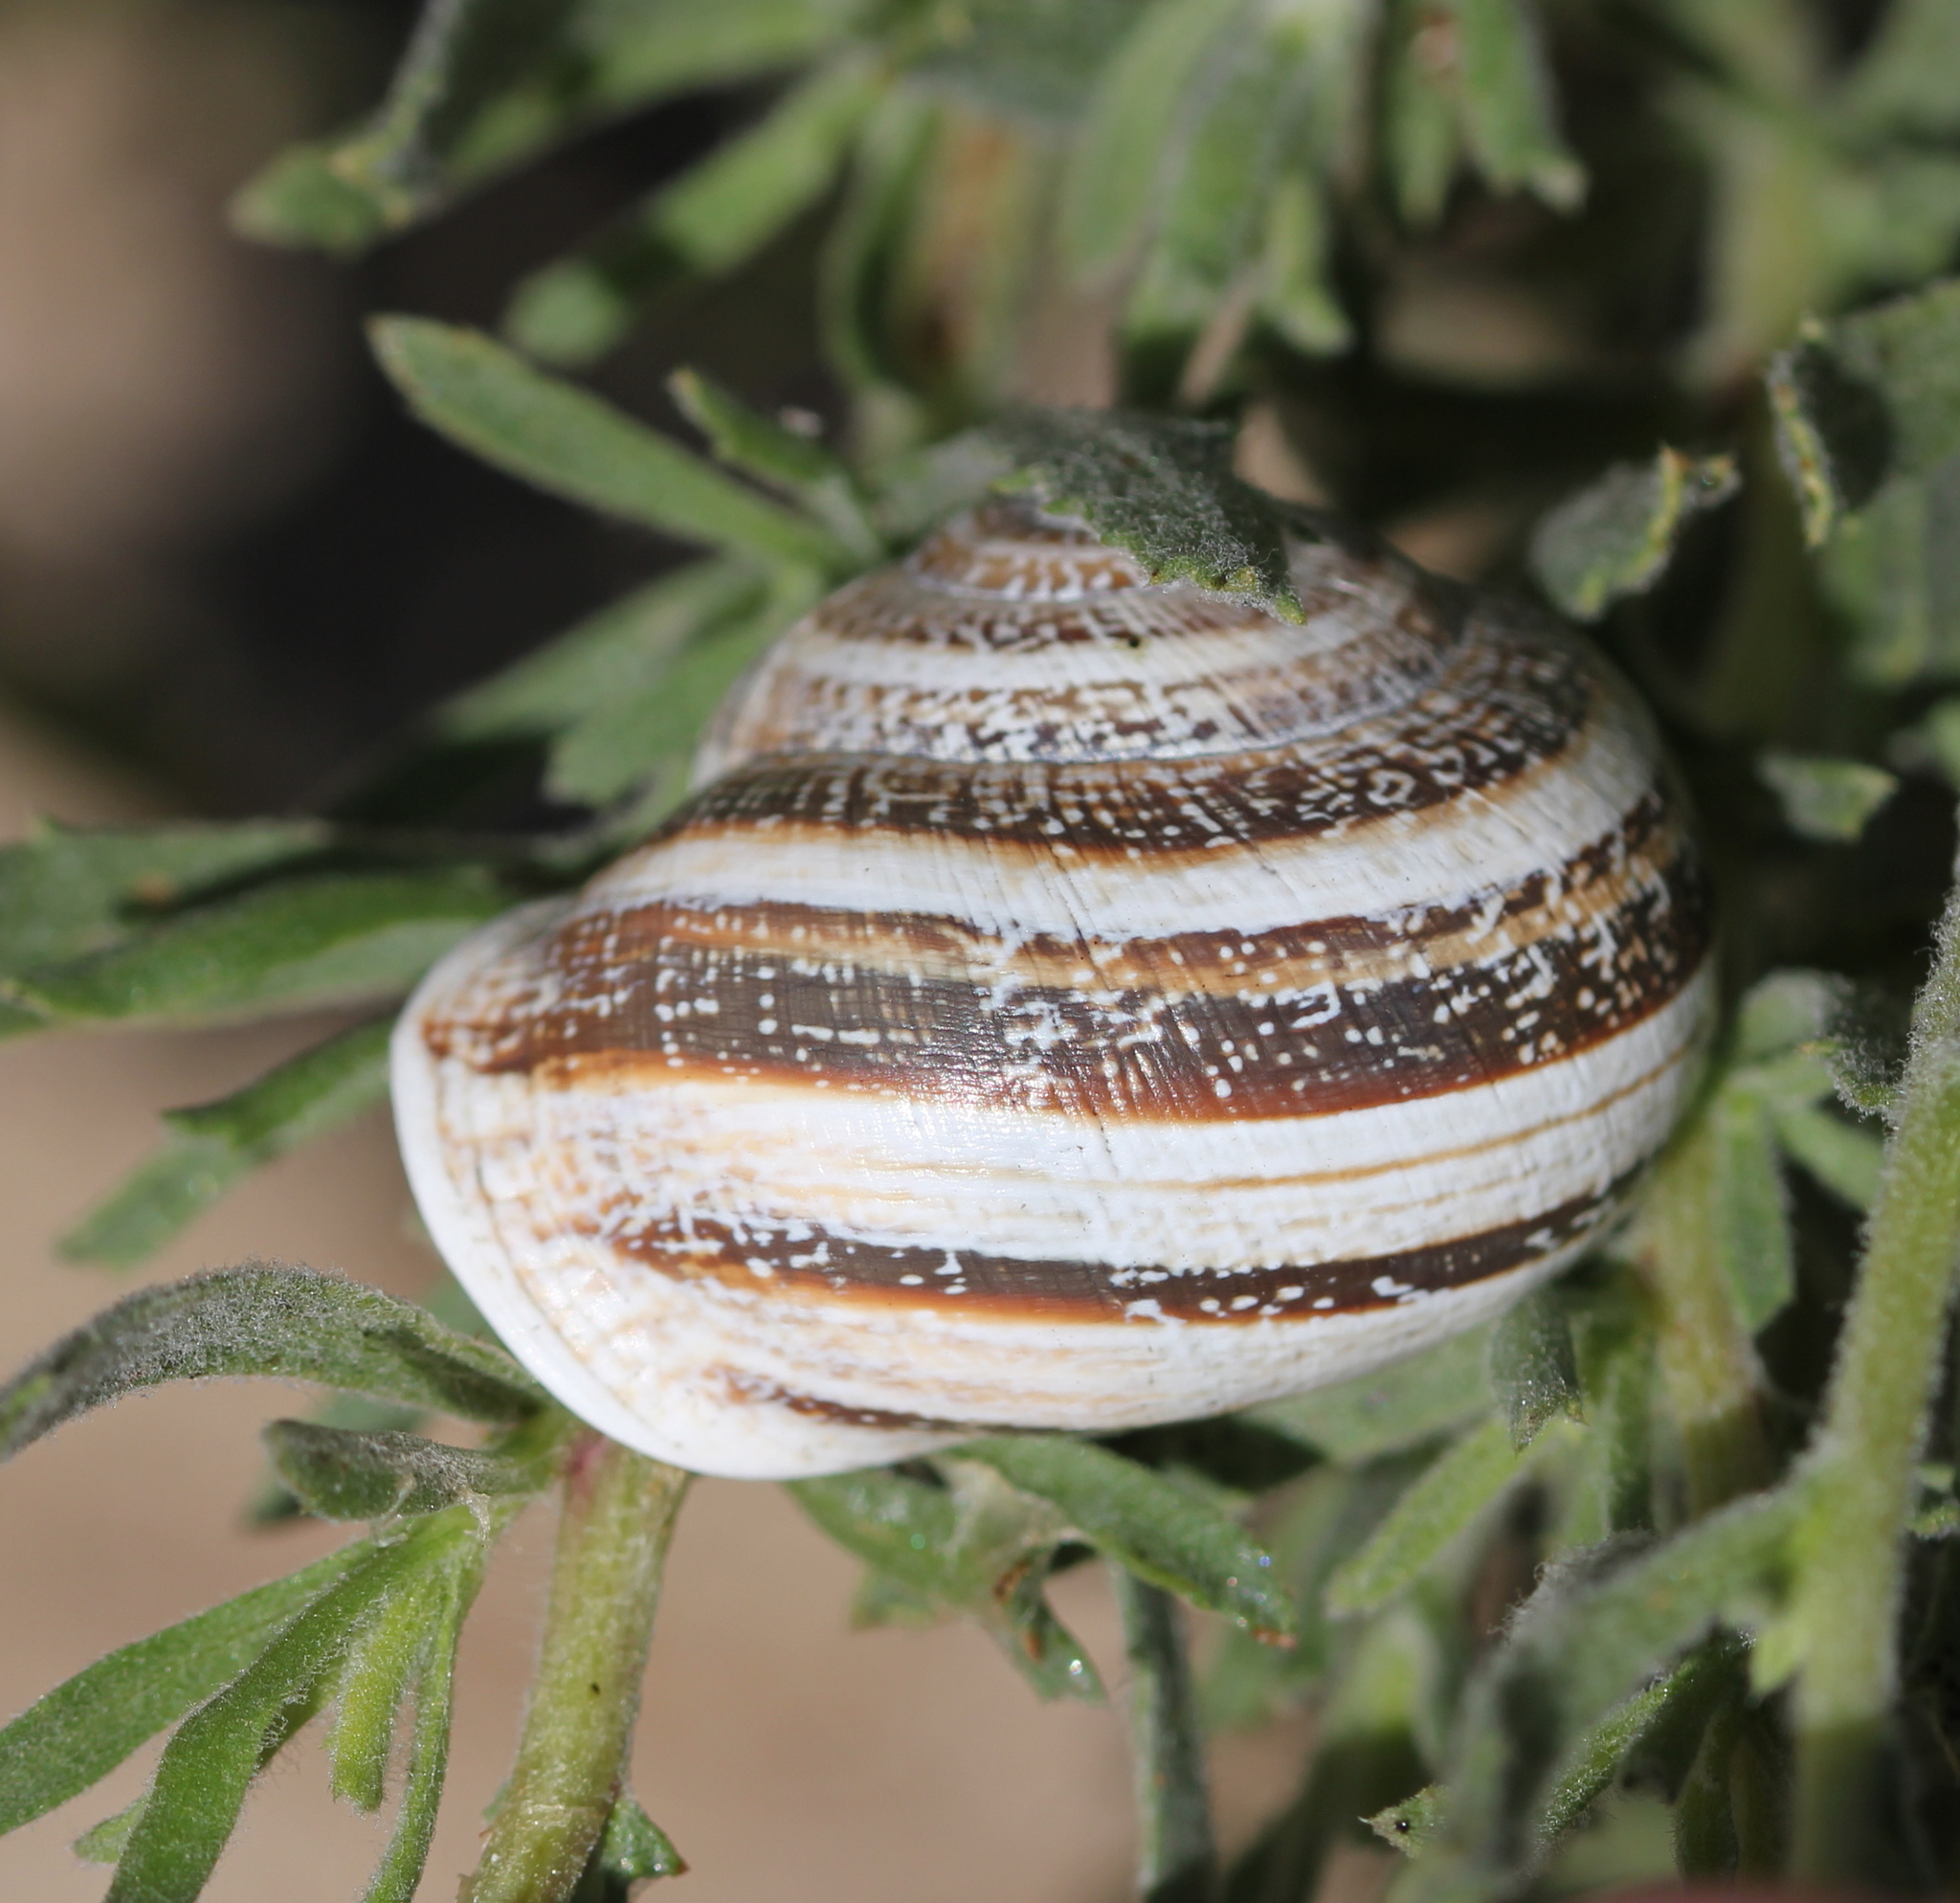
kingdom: Animalia
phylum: Mollusca
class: Gastropoda
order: Stylommatophora
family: Helicidae
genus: Otala
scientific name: Otala lactea
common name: Milk snail
